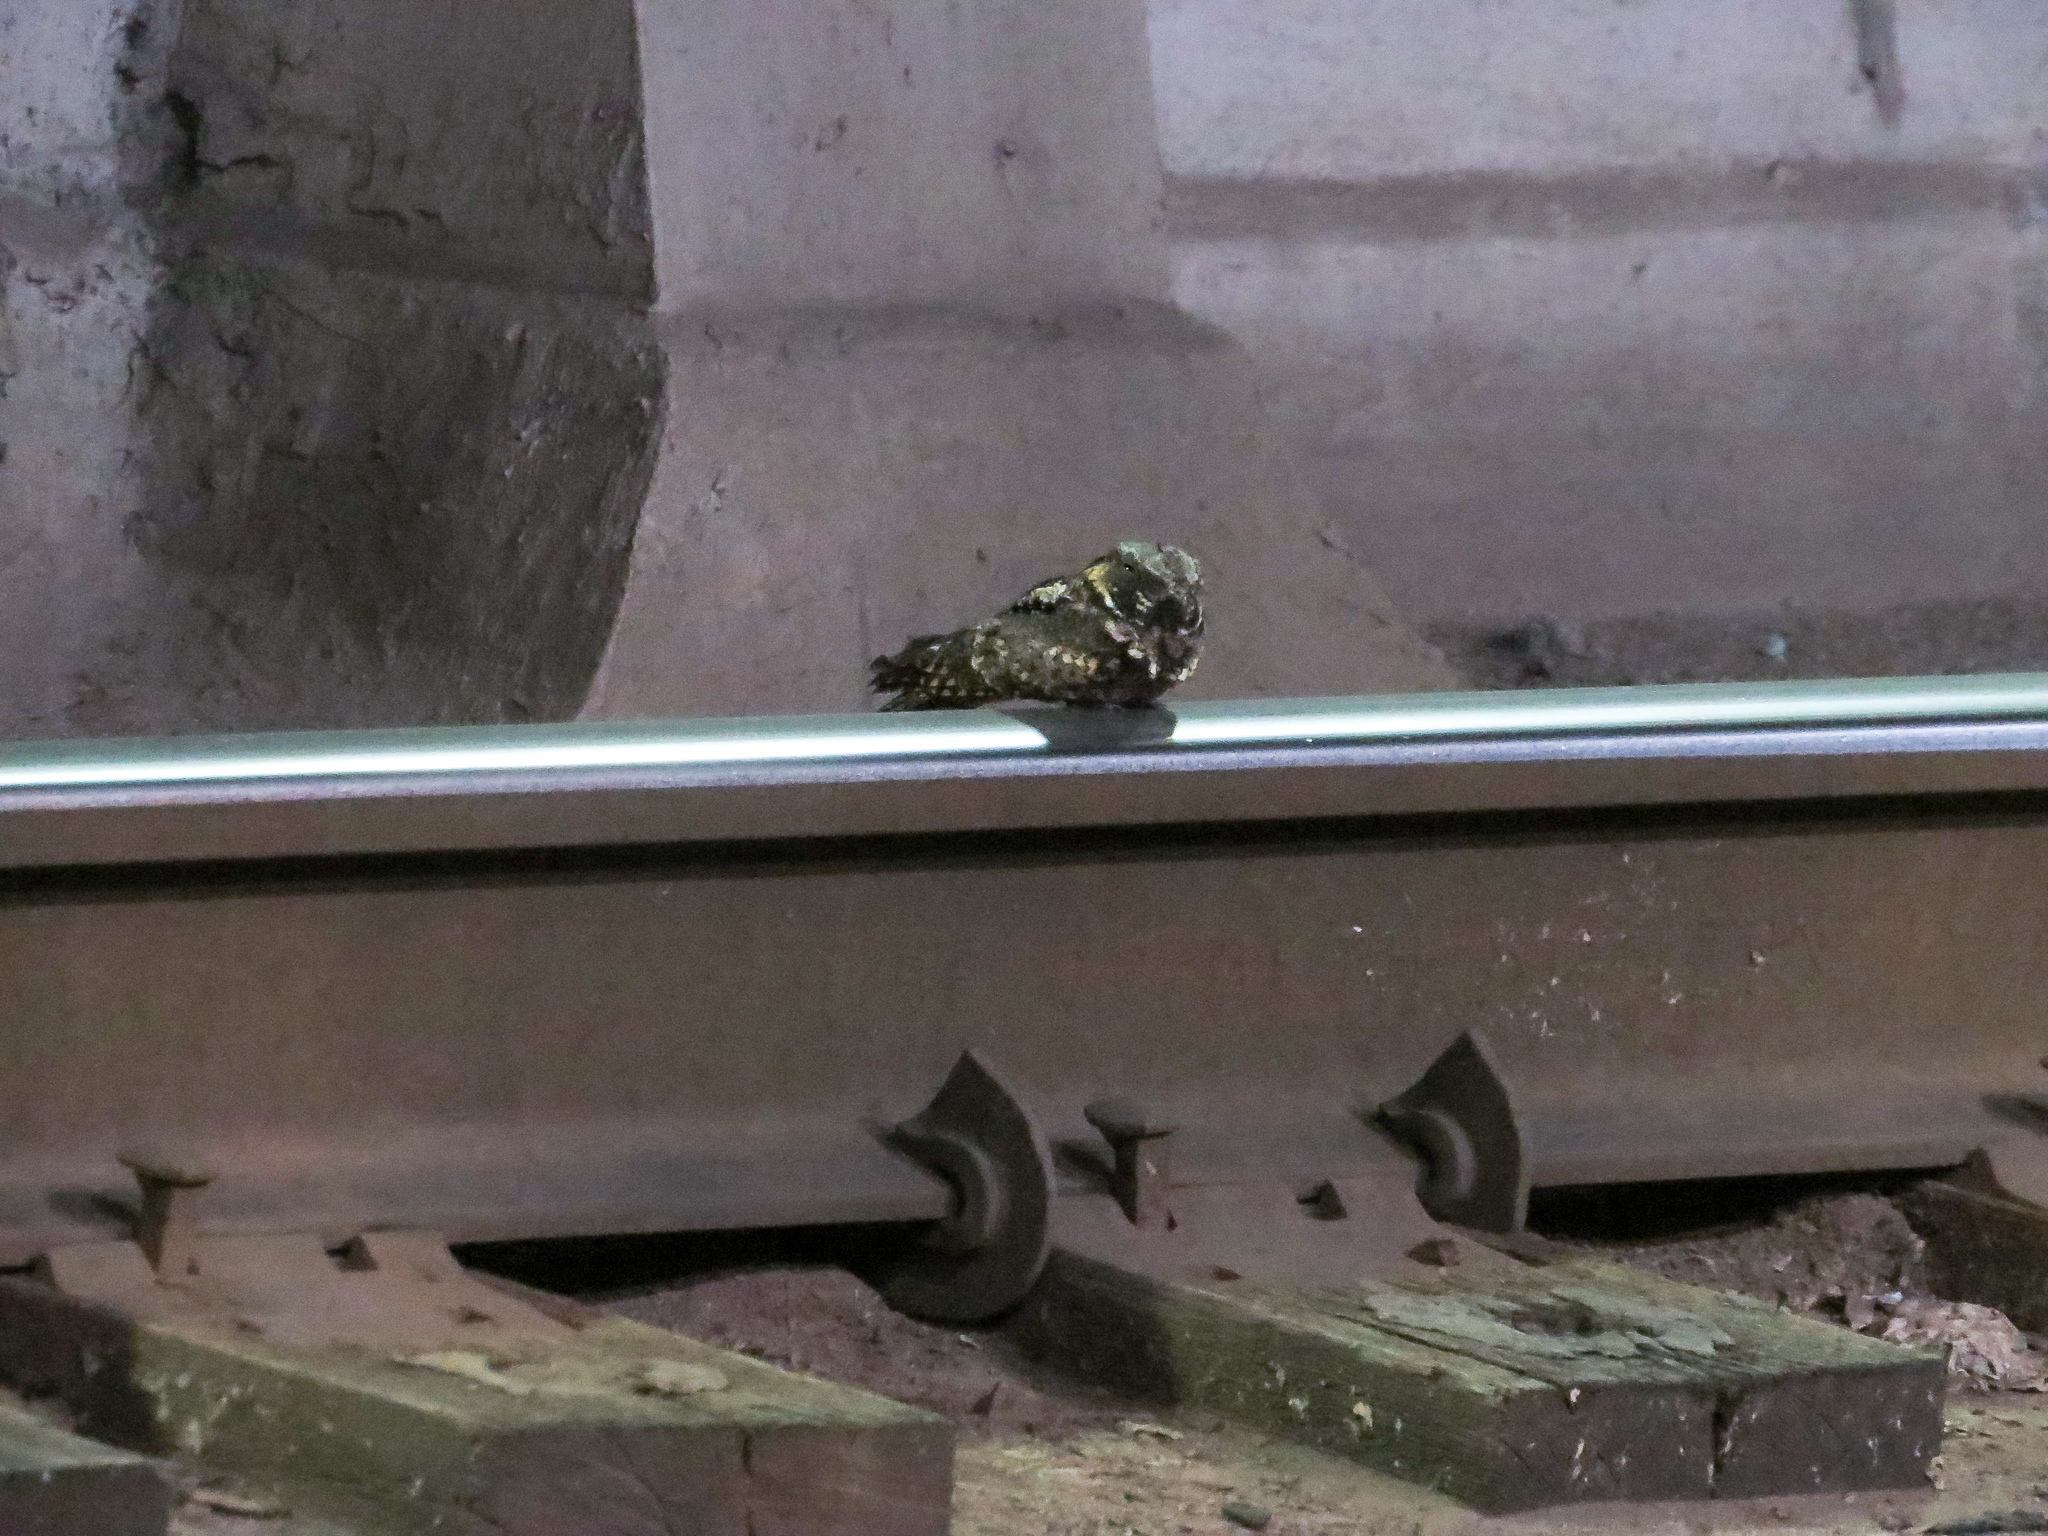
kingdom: Animalia
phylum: Chordata
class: Aves
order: Caprimulgiformes
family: Caprimulgidae
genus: Antrostomus
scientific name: Antrostomus vociferus
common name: Eastern whip-poor-will
